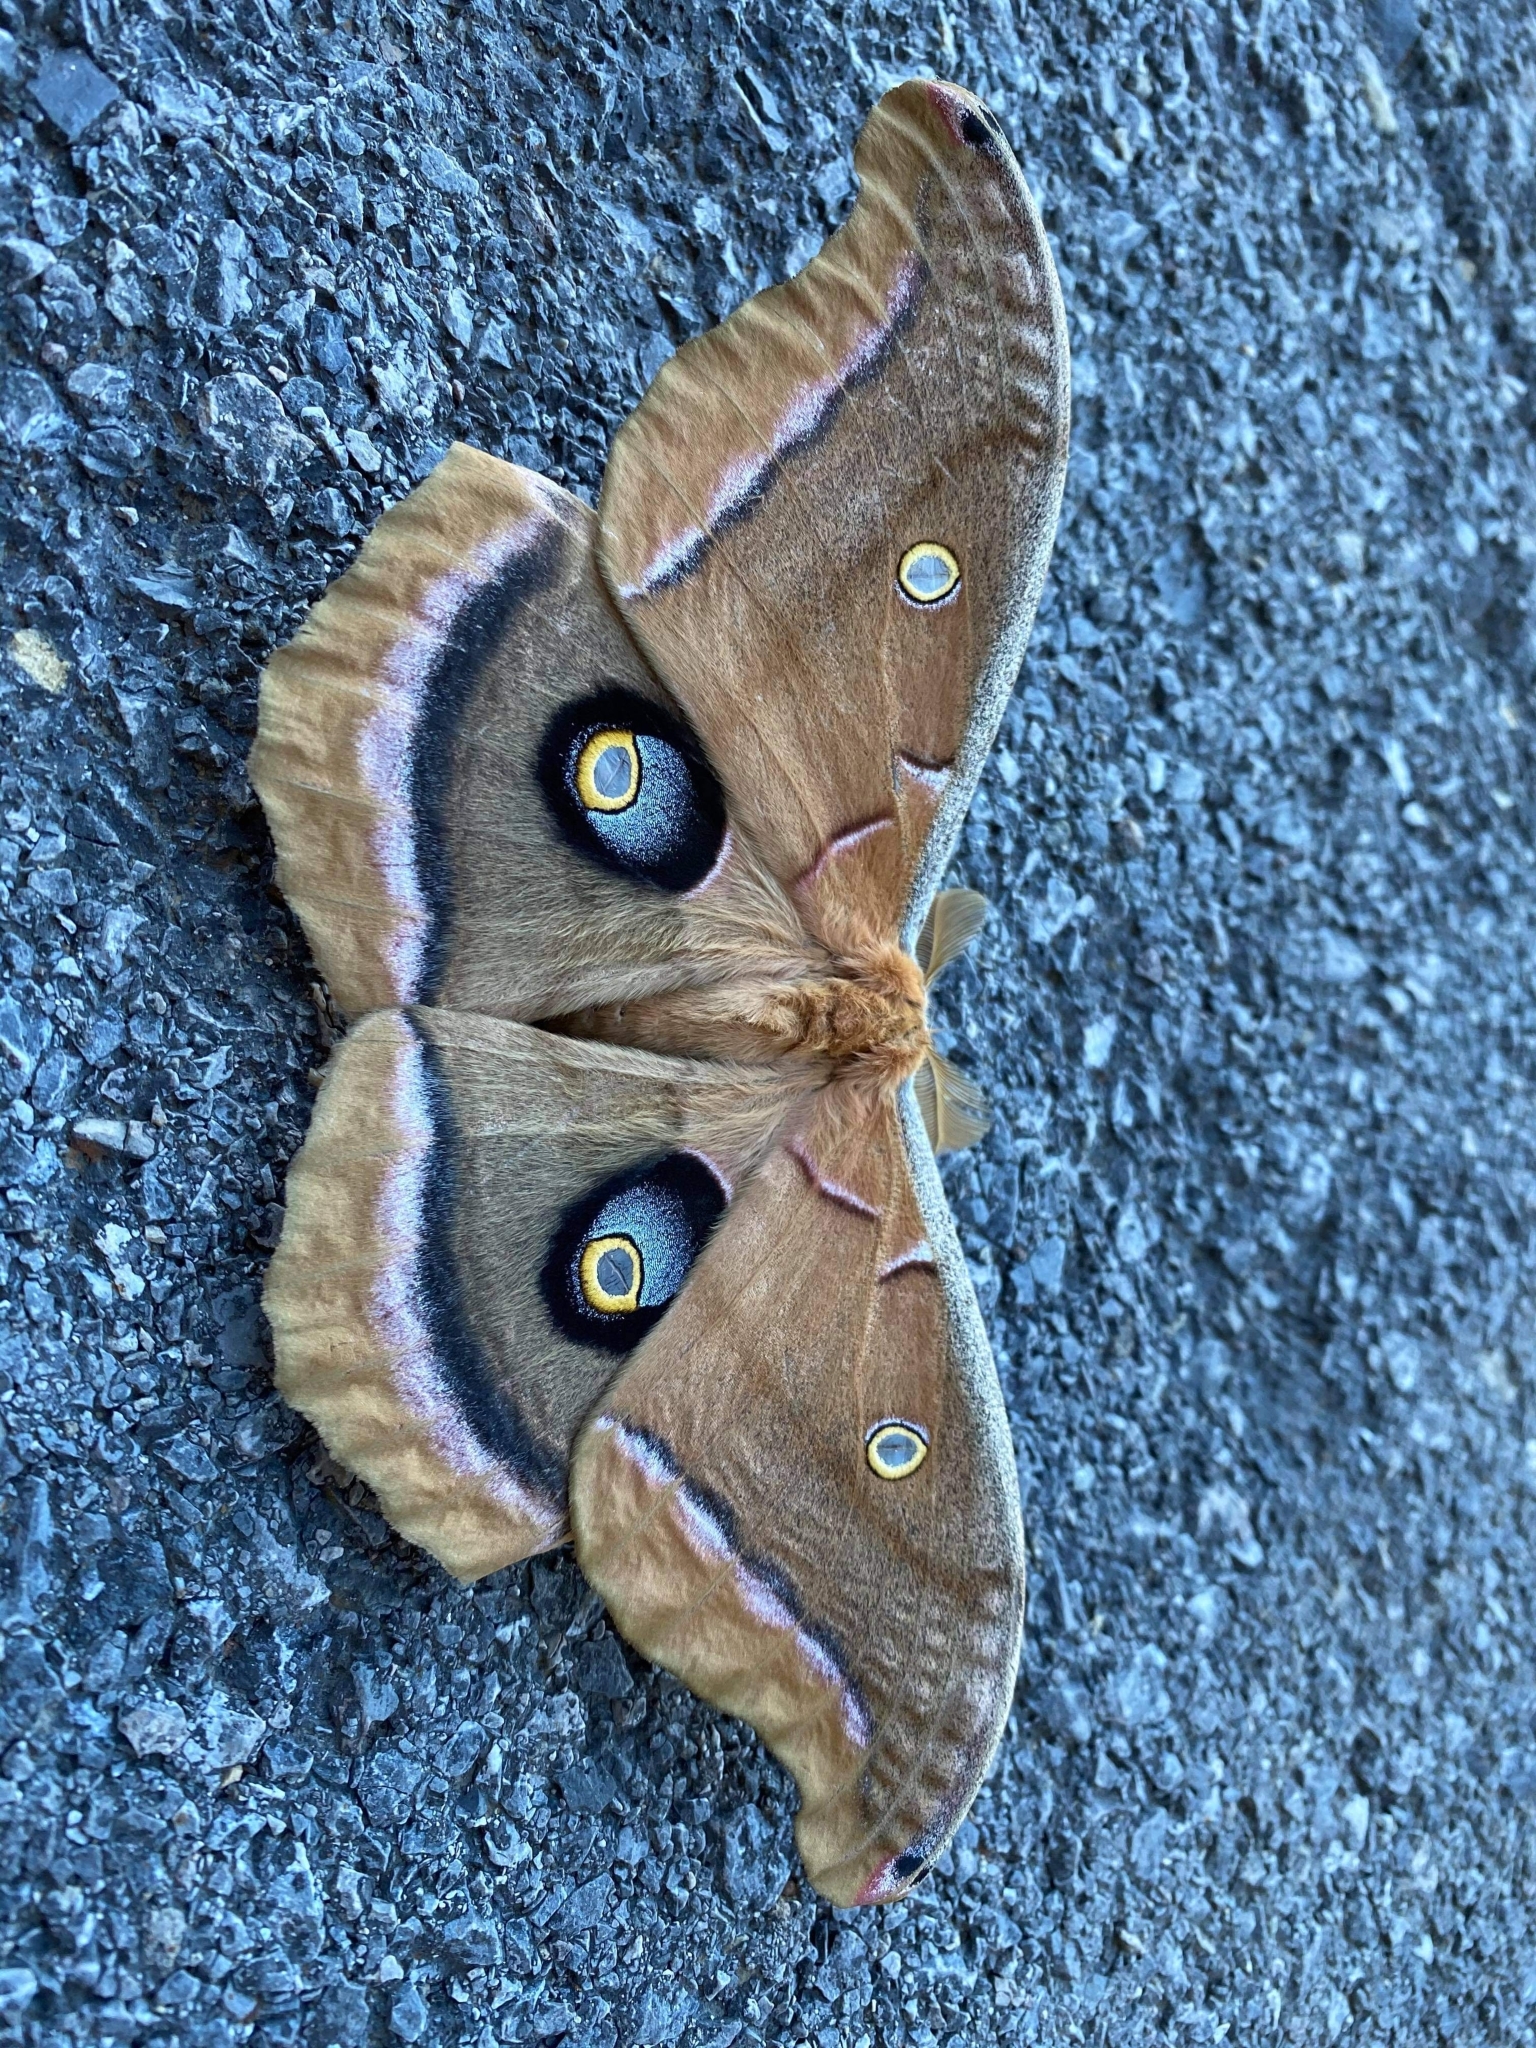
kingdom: Animalia
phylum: Arthropoda
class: Insecta
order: Lepidoptera
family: Saturniidae
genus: Antheraea
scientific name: Antheraea polyphemus
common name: Polyphemus moth
